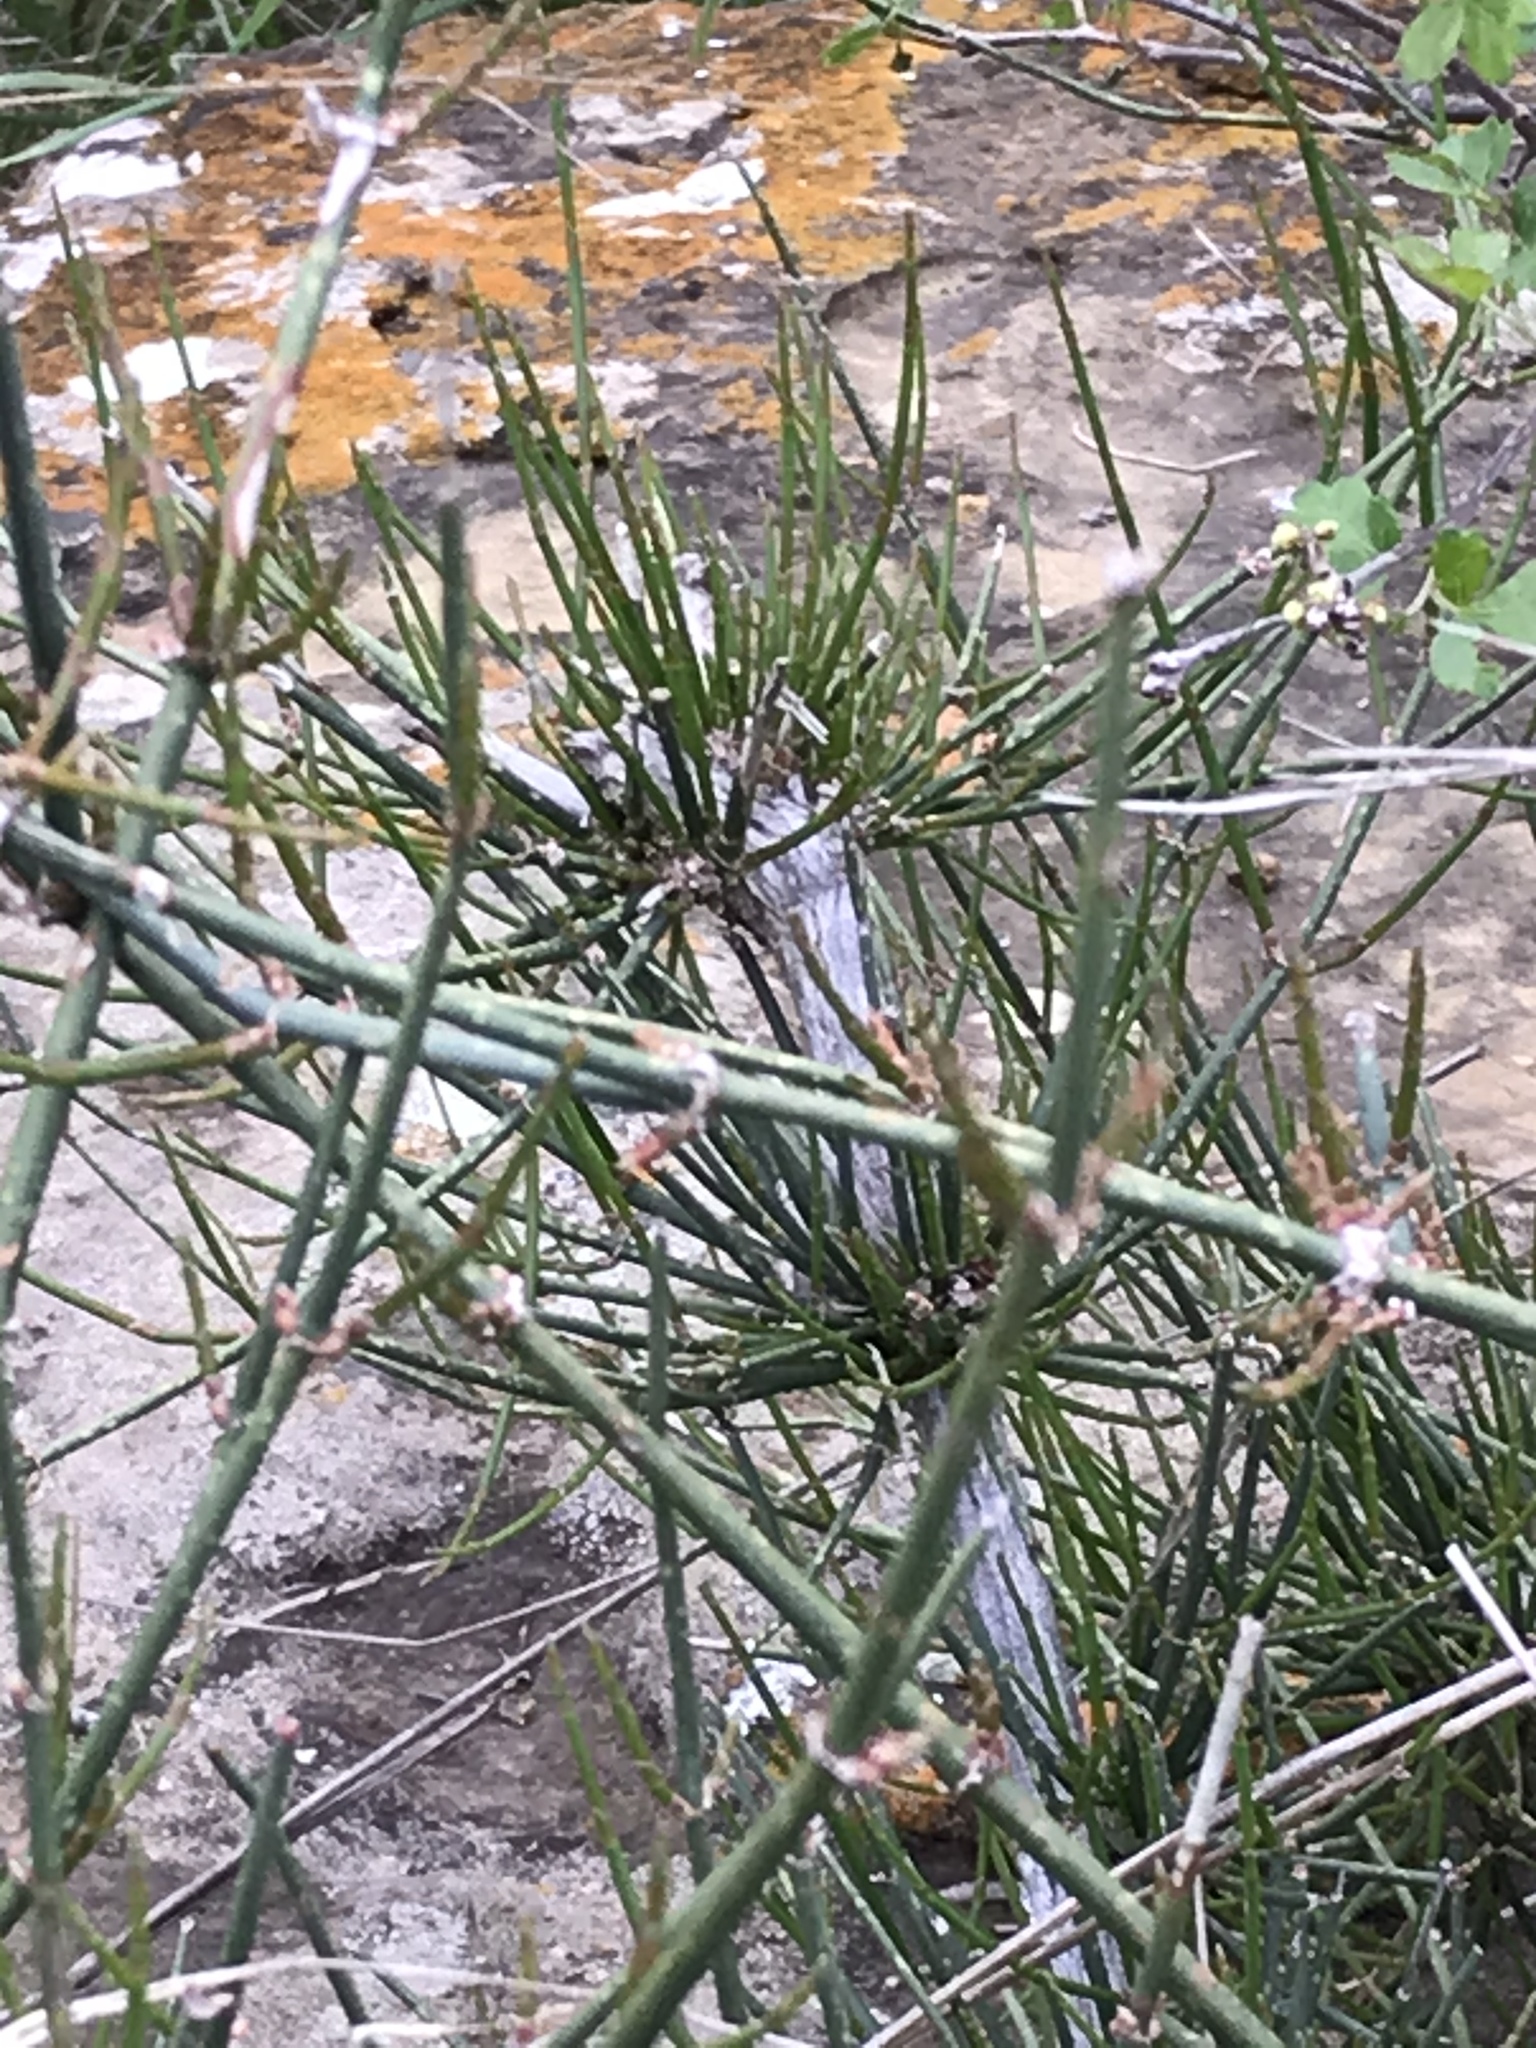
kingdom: Plantae
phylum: Tracheophyta
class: Gnetopsida
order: Ephedrales
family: Ephedraceae
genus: Ephedra
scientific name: Ephedra antisyphilitica
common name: Clipweed
